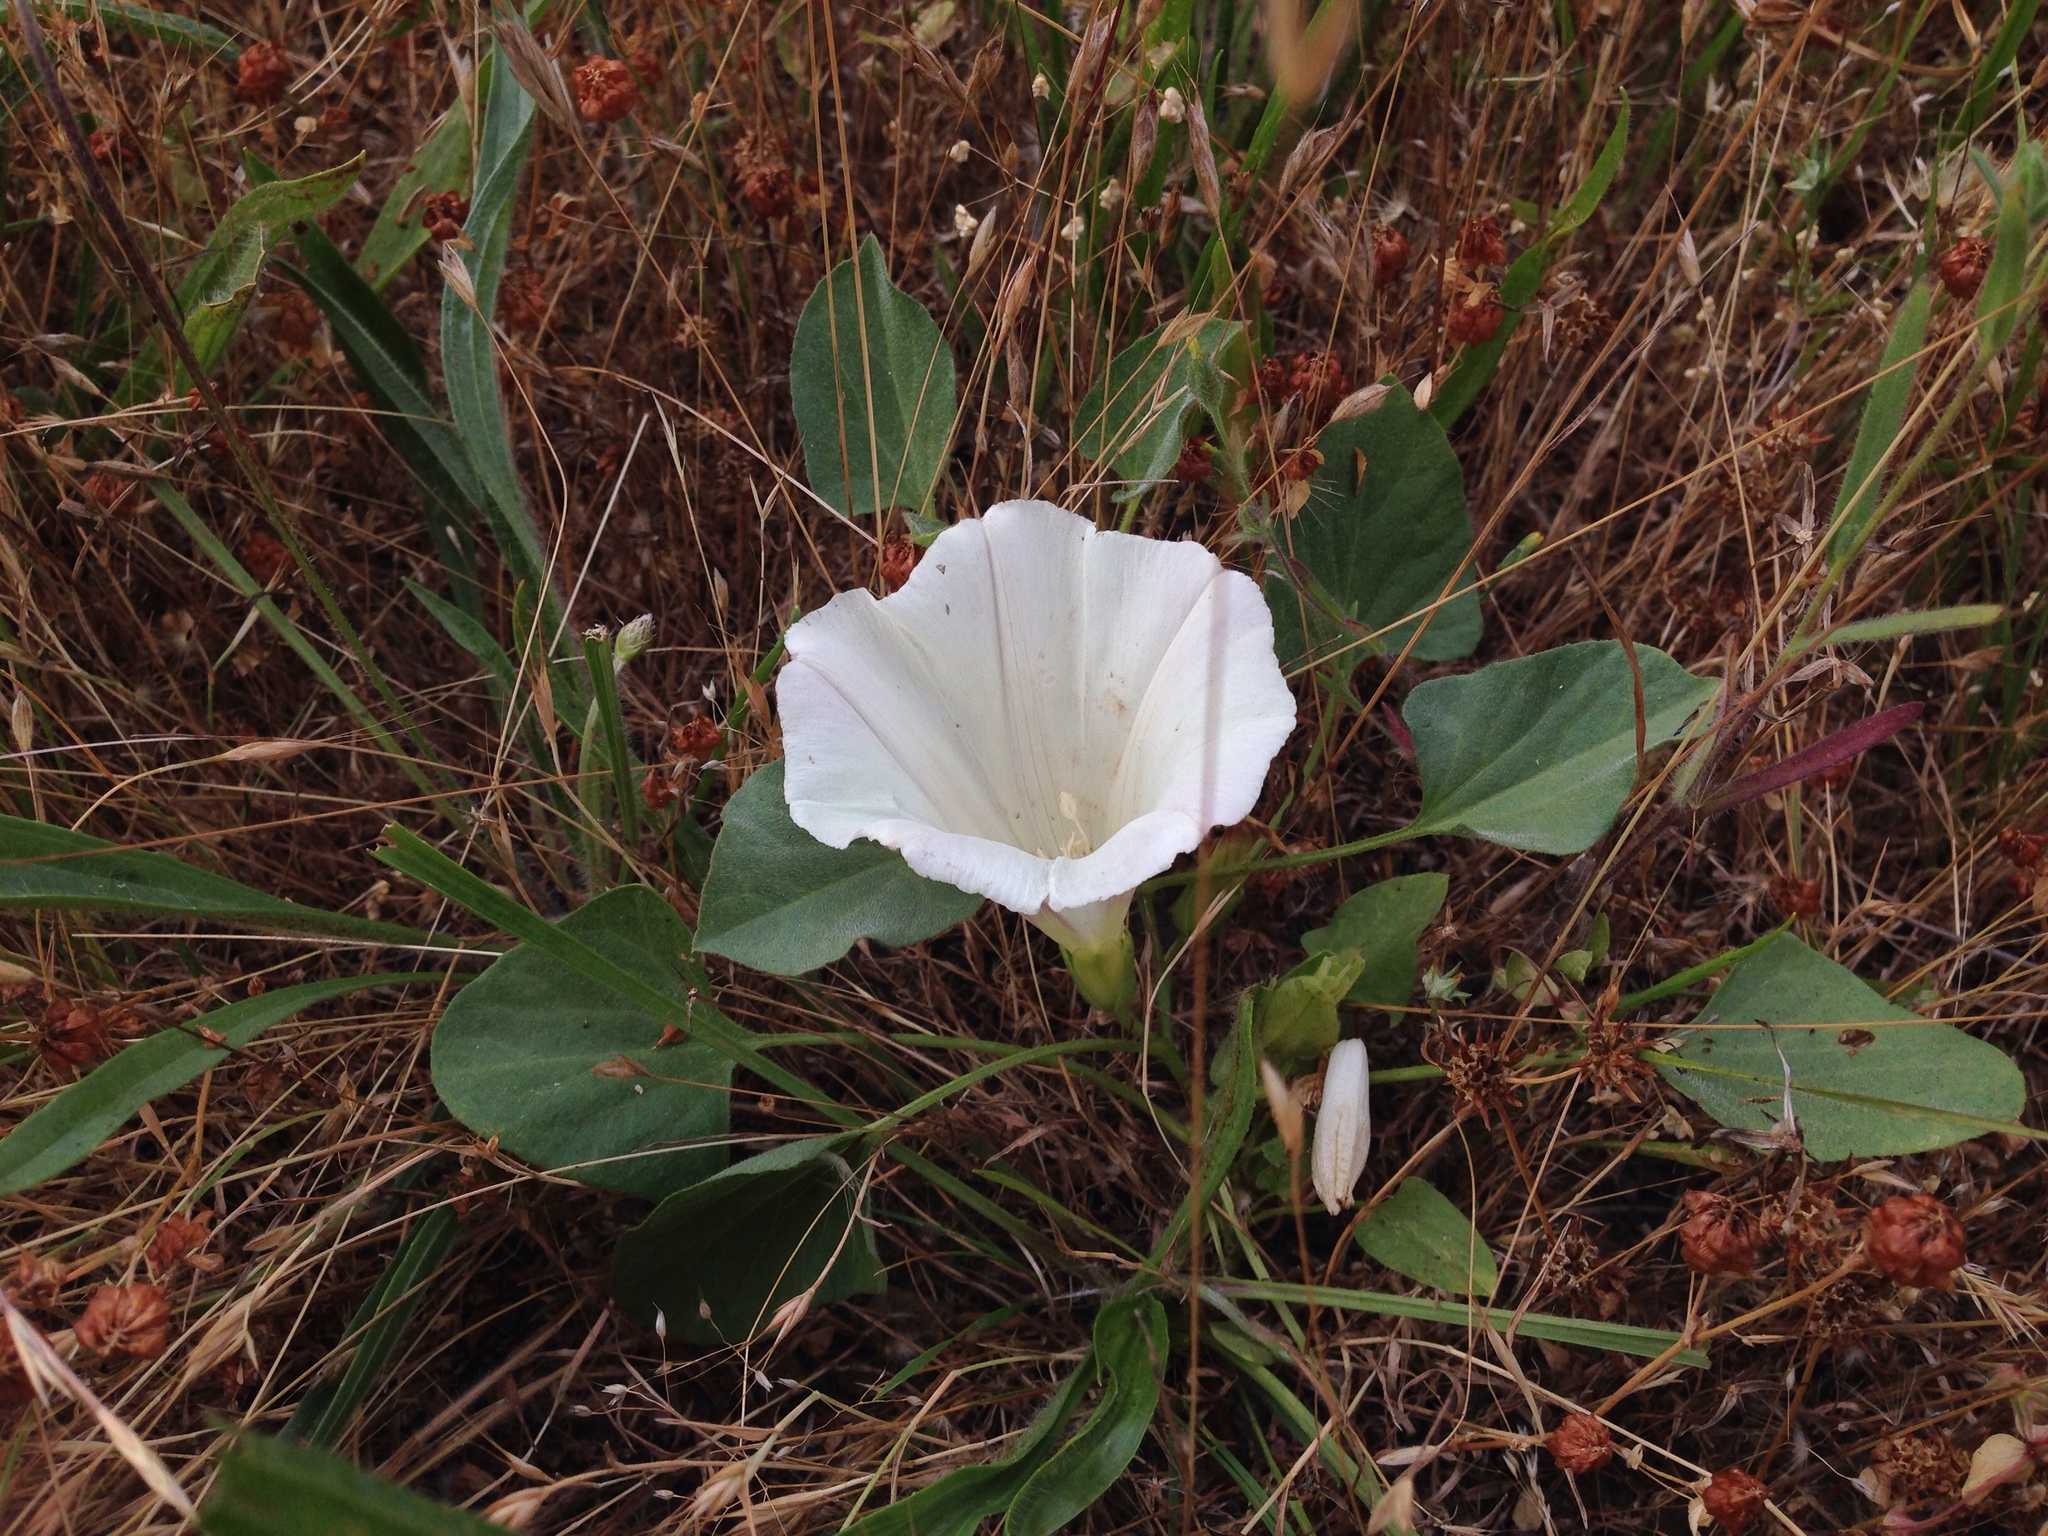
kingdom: Plantae
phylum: Tracheophyta
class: Magnoliopsida
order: Solanales
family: Convolvulaceae
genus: Calystegia
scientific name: Calystegia subacaulis
